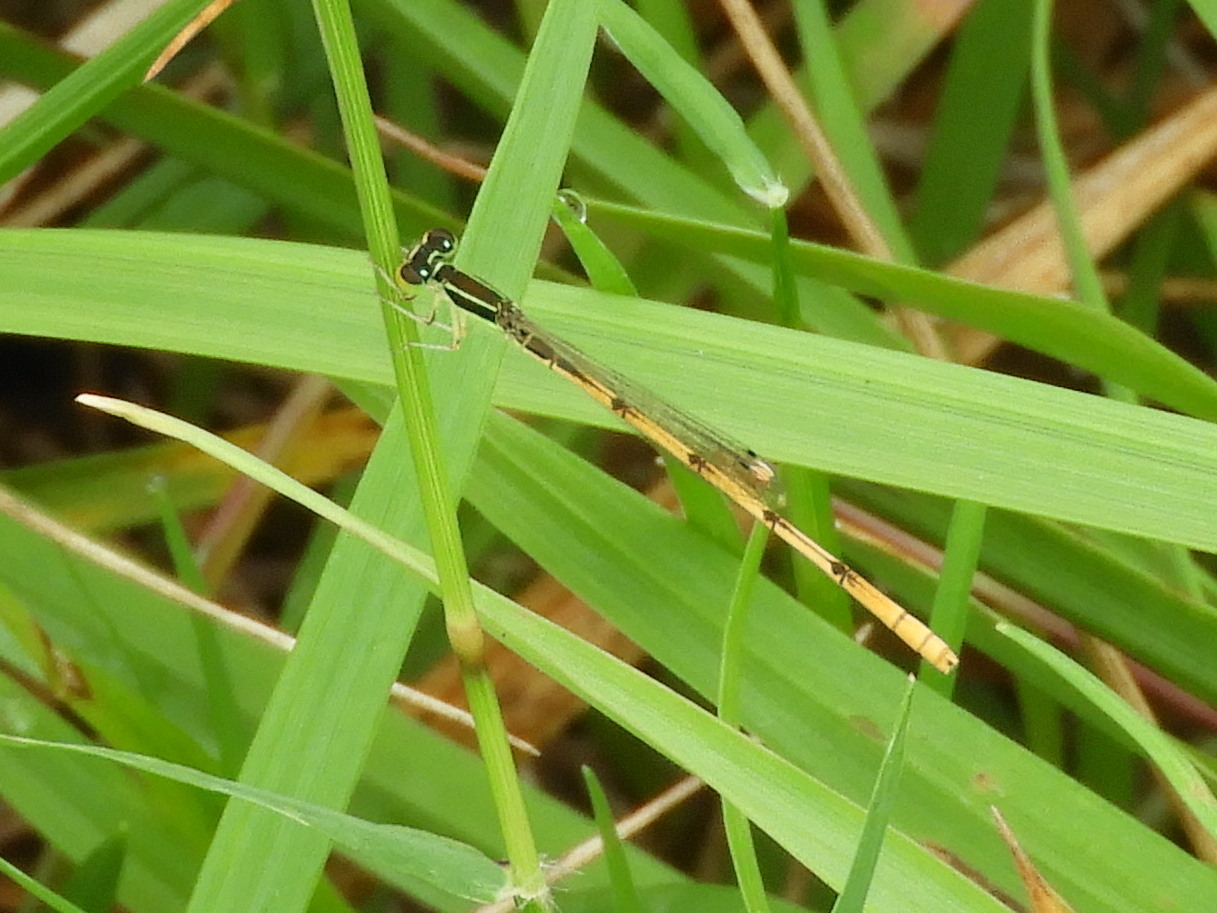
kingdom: Animalia
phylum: Arthropoda
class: Insecta
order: Odonata
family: Coenagrionidae
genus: Ischnura
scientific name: Ischnura hastata
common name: Citrine forktail
